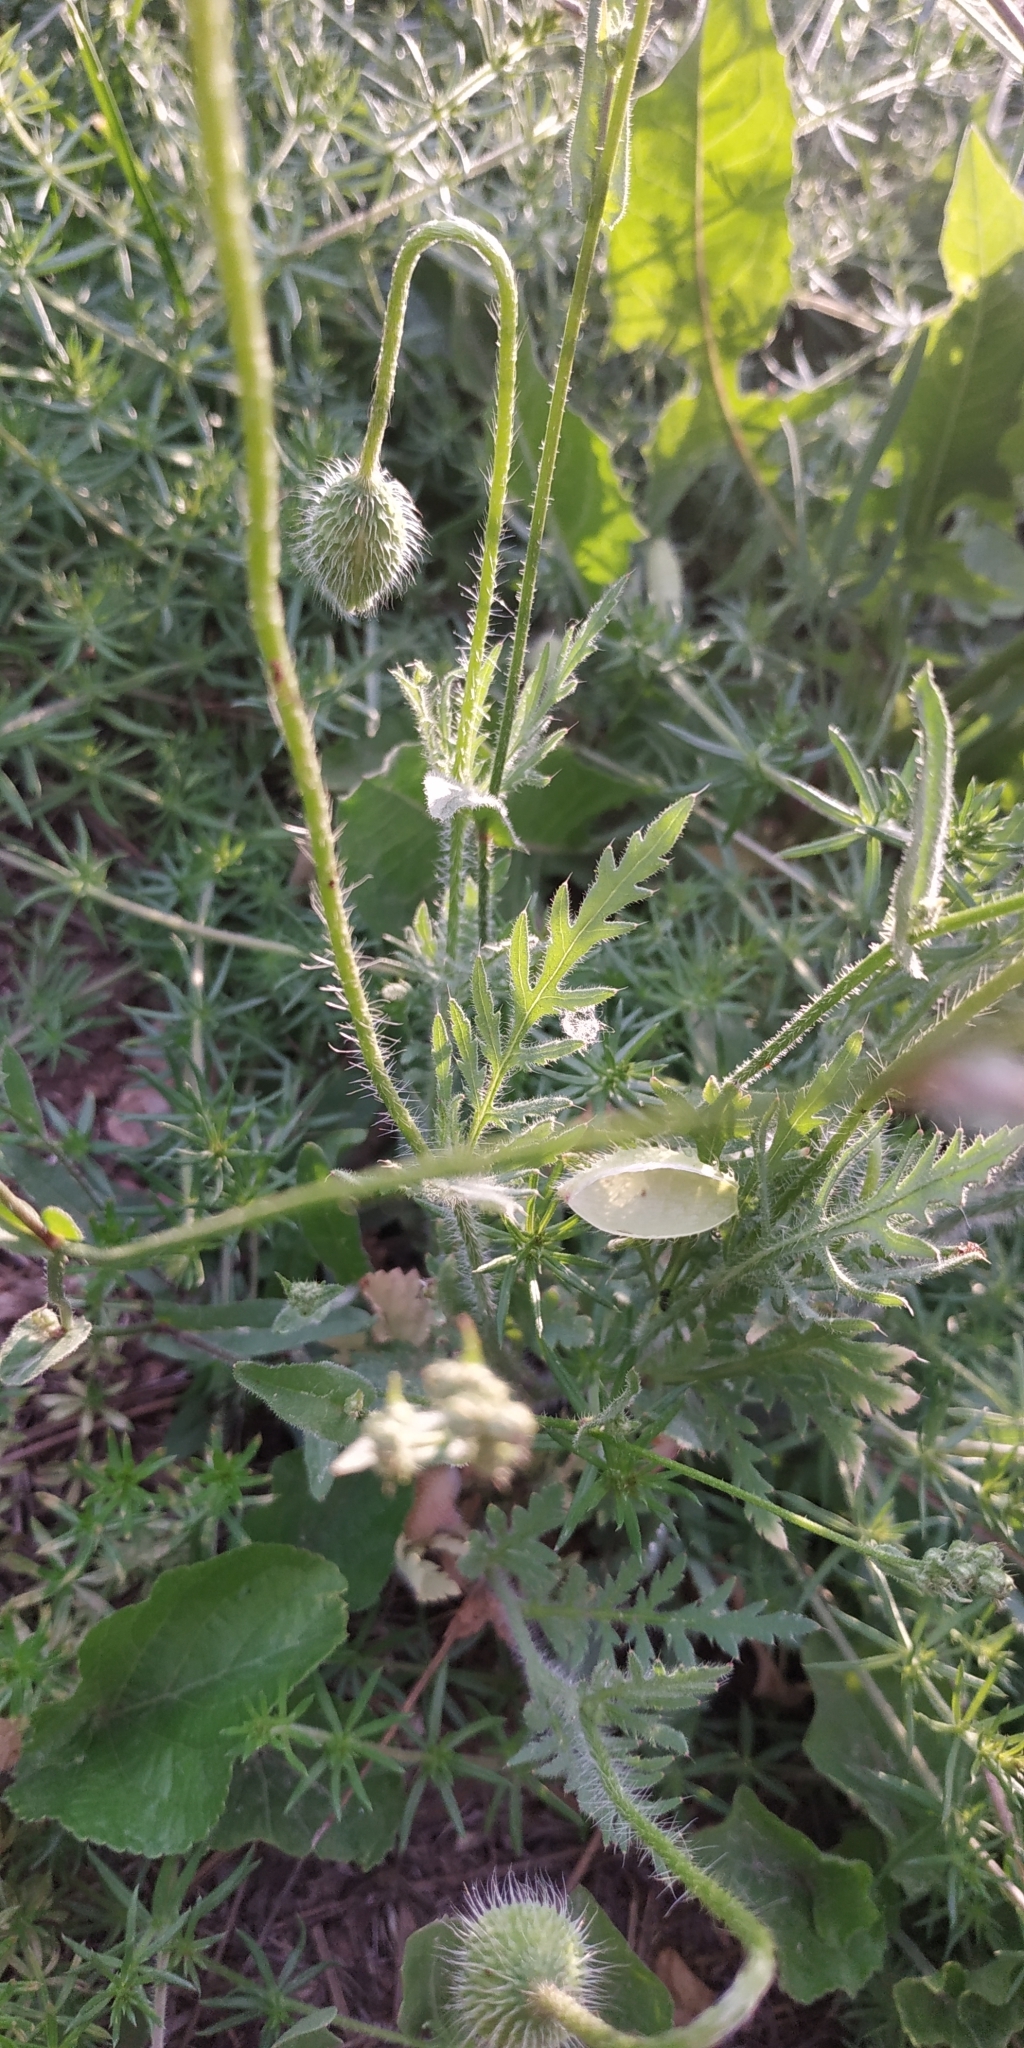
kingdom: Plantae
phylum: Tracheophyta
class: Magnoliopsida
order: Ranunculales
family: Papaveraceae
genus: Papaver
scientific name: Papaver rhoeas
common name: Corn poppy
